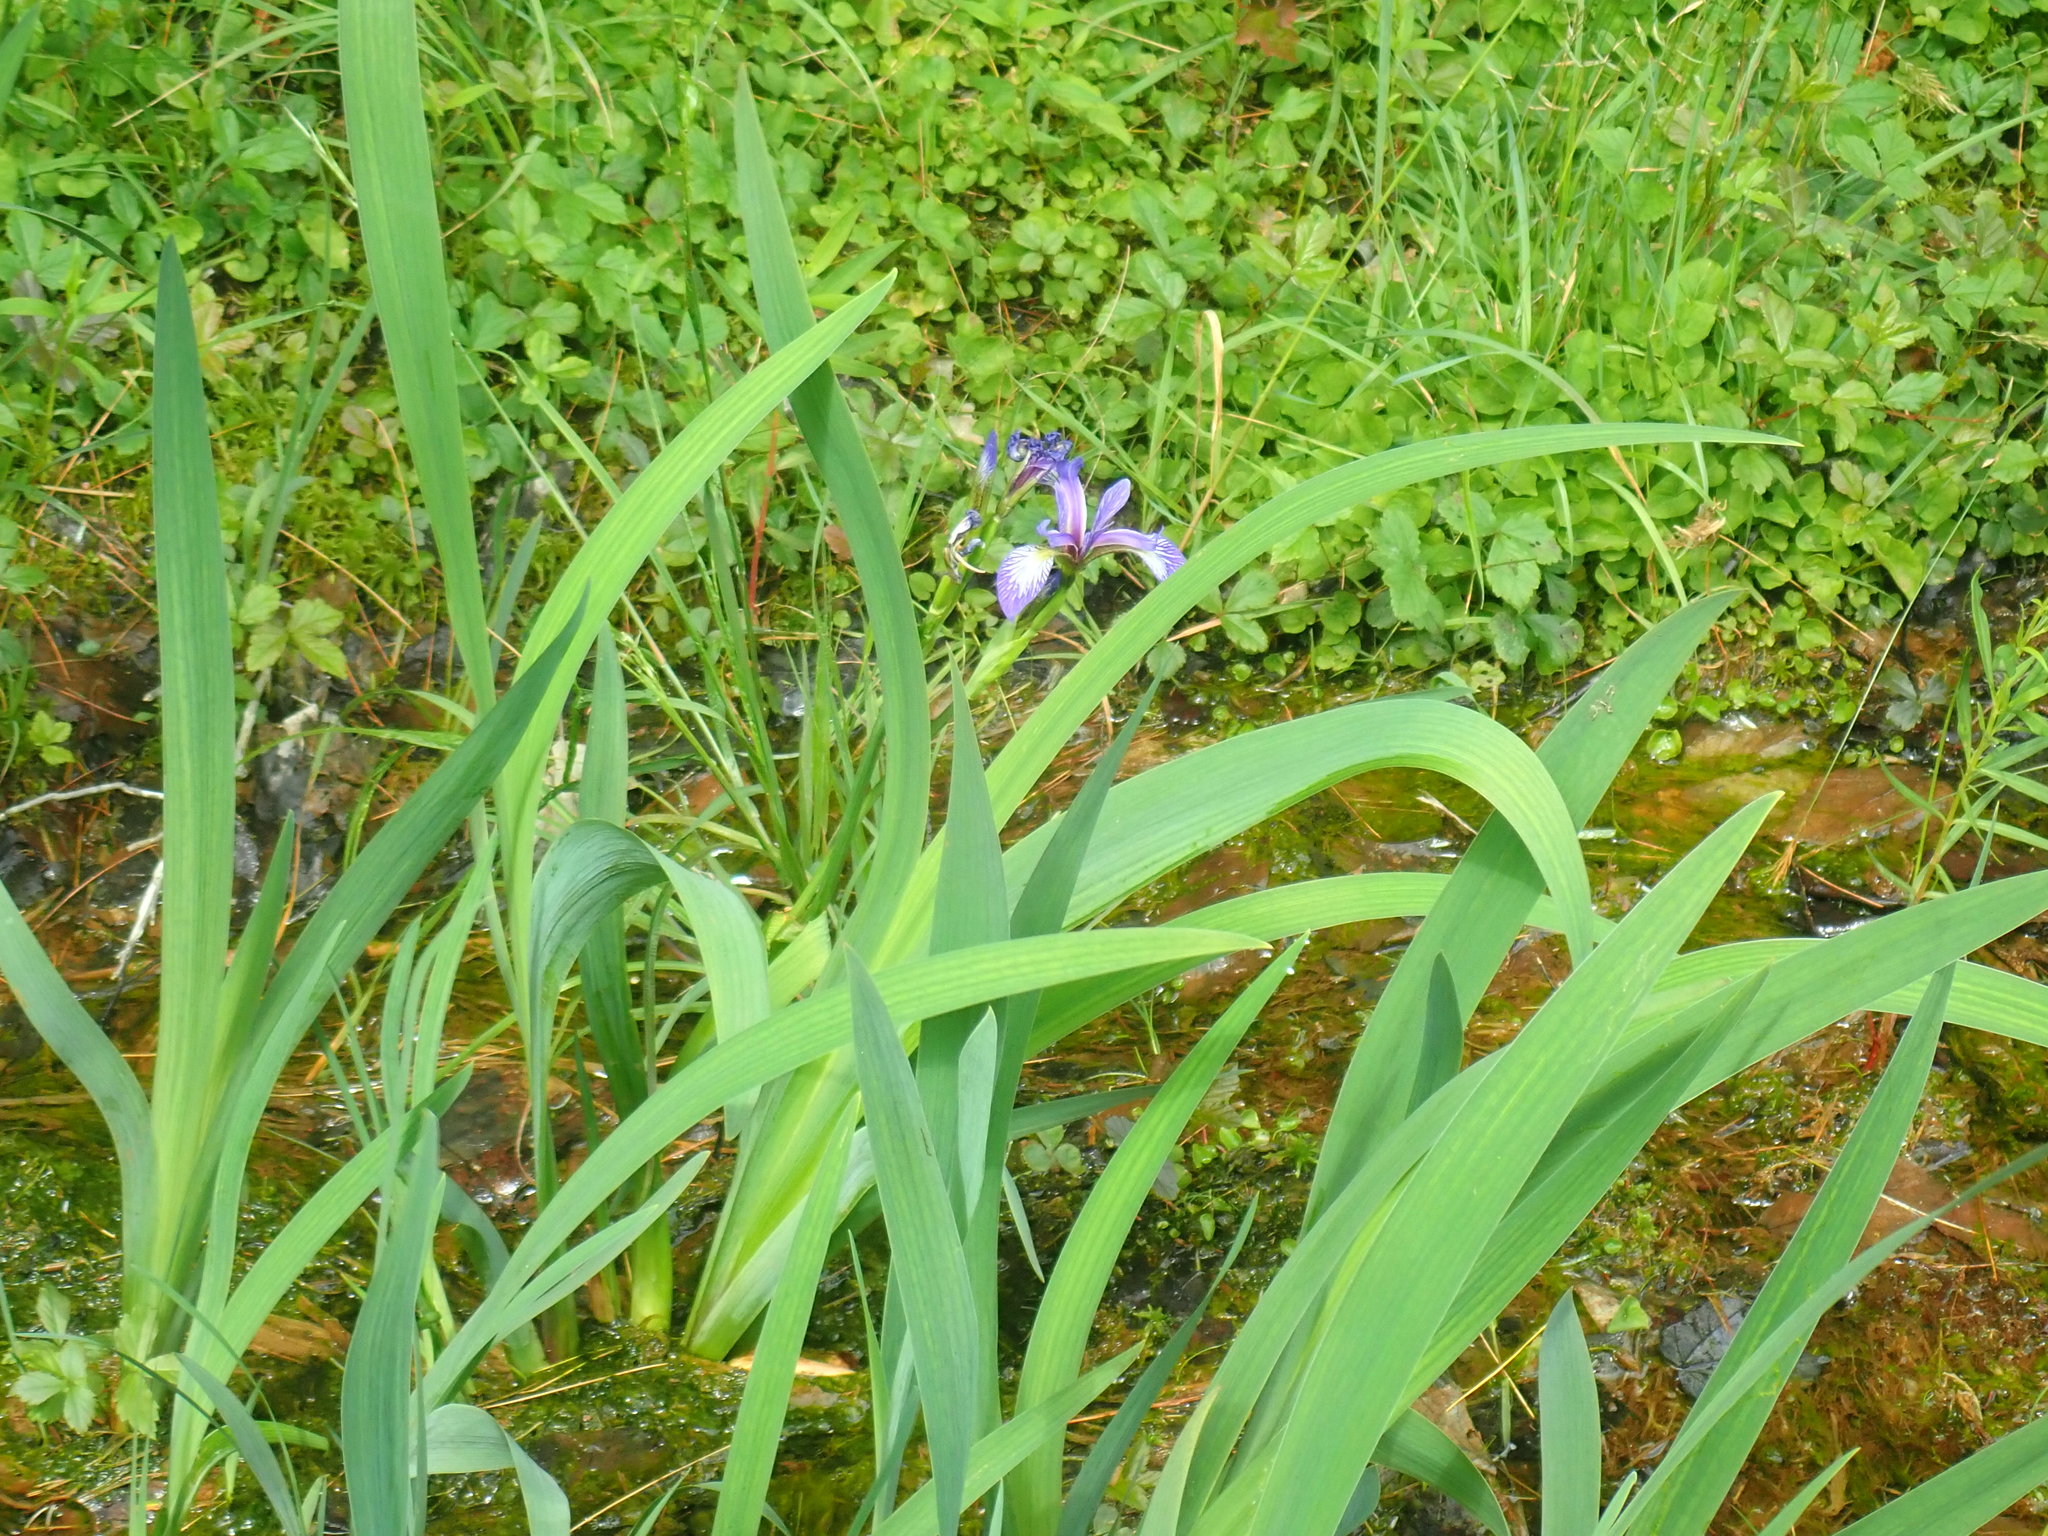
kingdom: Plantae
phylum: Tracheophyta
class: Liliopsida
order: Asparagales
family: Iridaceae
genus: Iris
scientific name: Iris versicolor
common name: Purple iris
